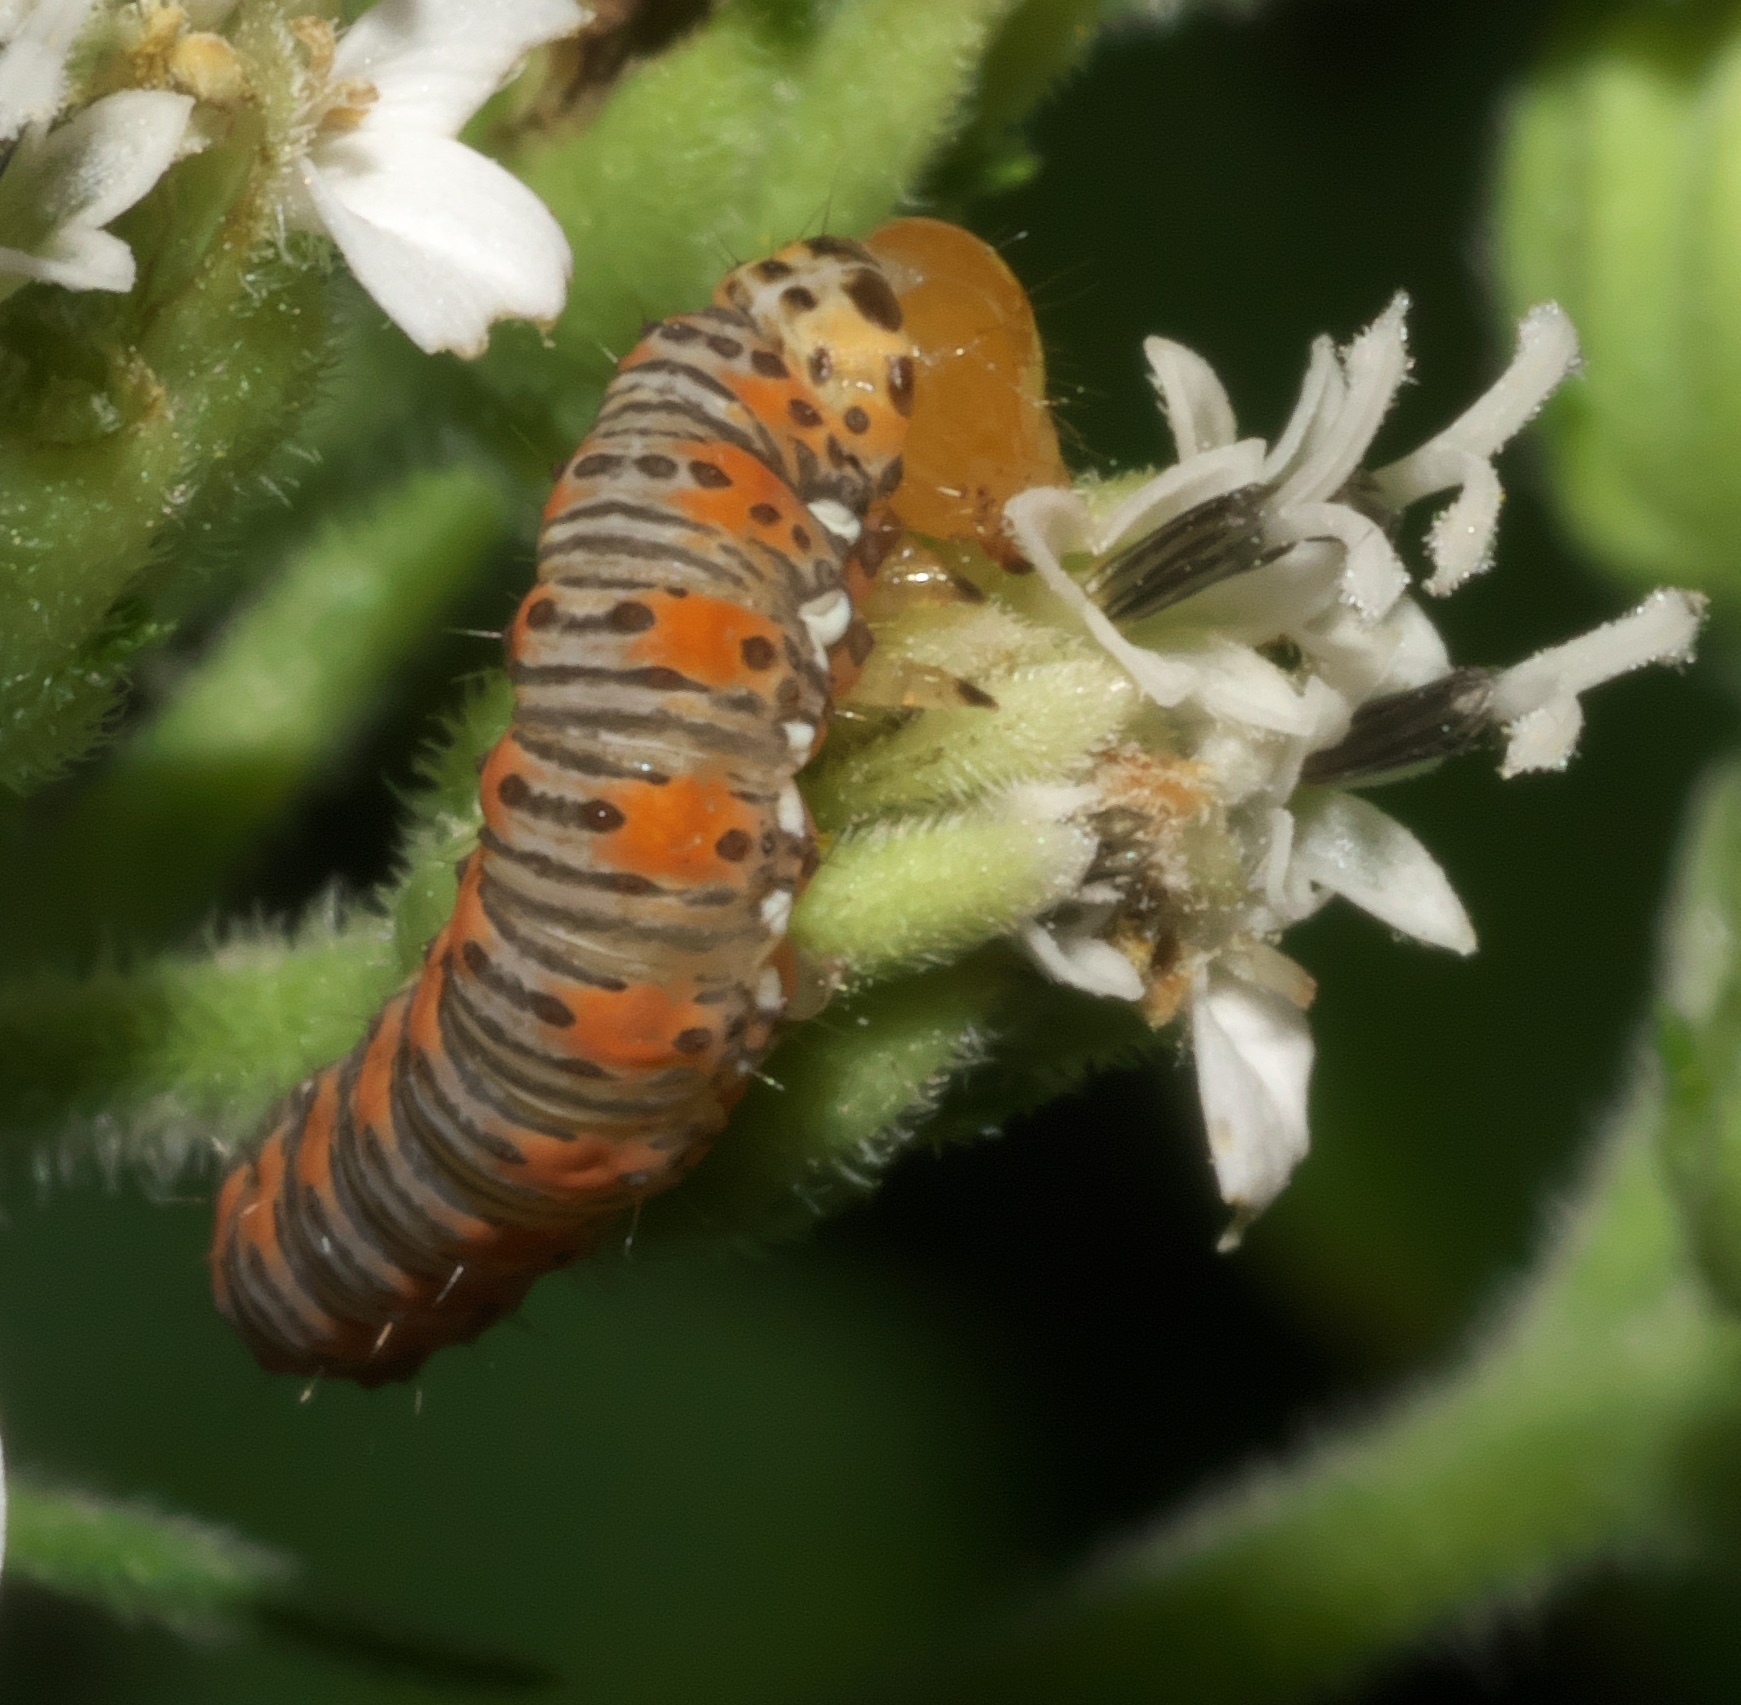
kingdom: Animalia
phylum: Arthropoda
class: Insecta
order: Lepidoptera
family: Noctuidae
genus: Basilodes
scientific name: Basilodes pepita
